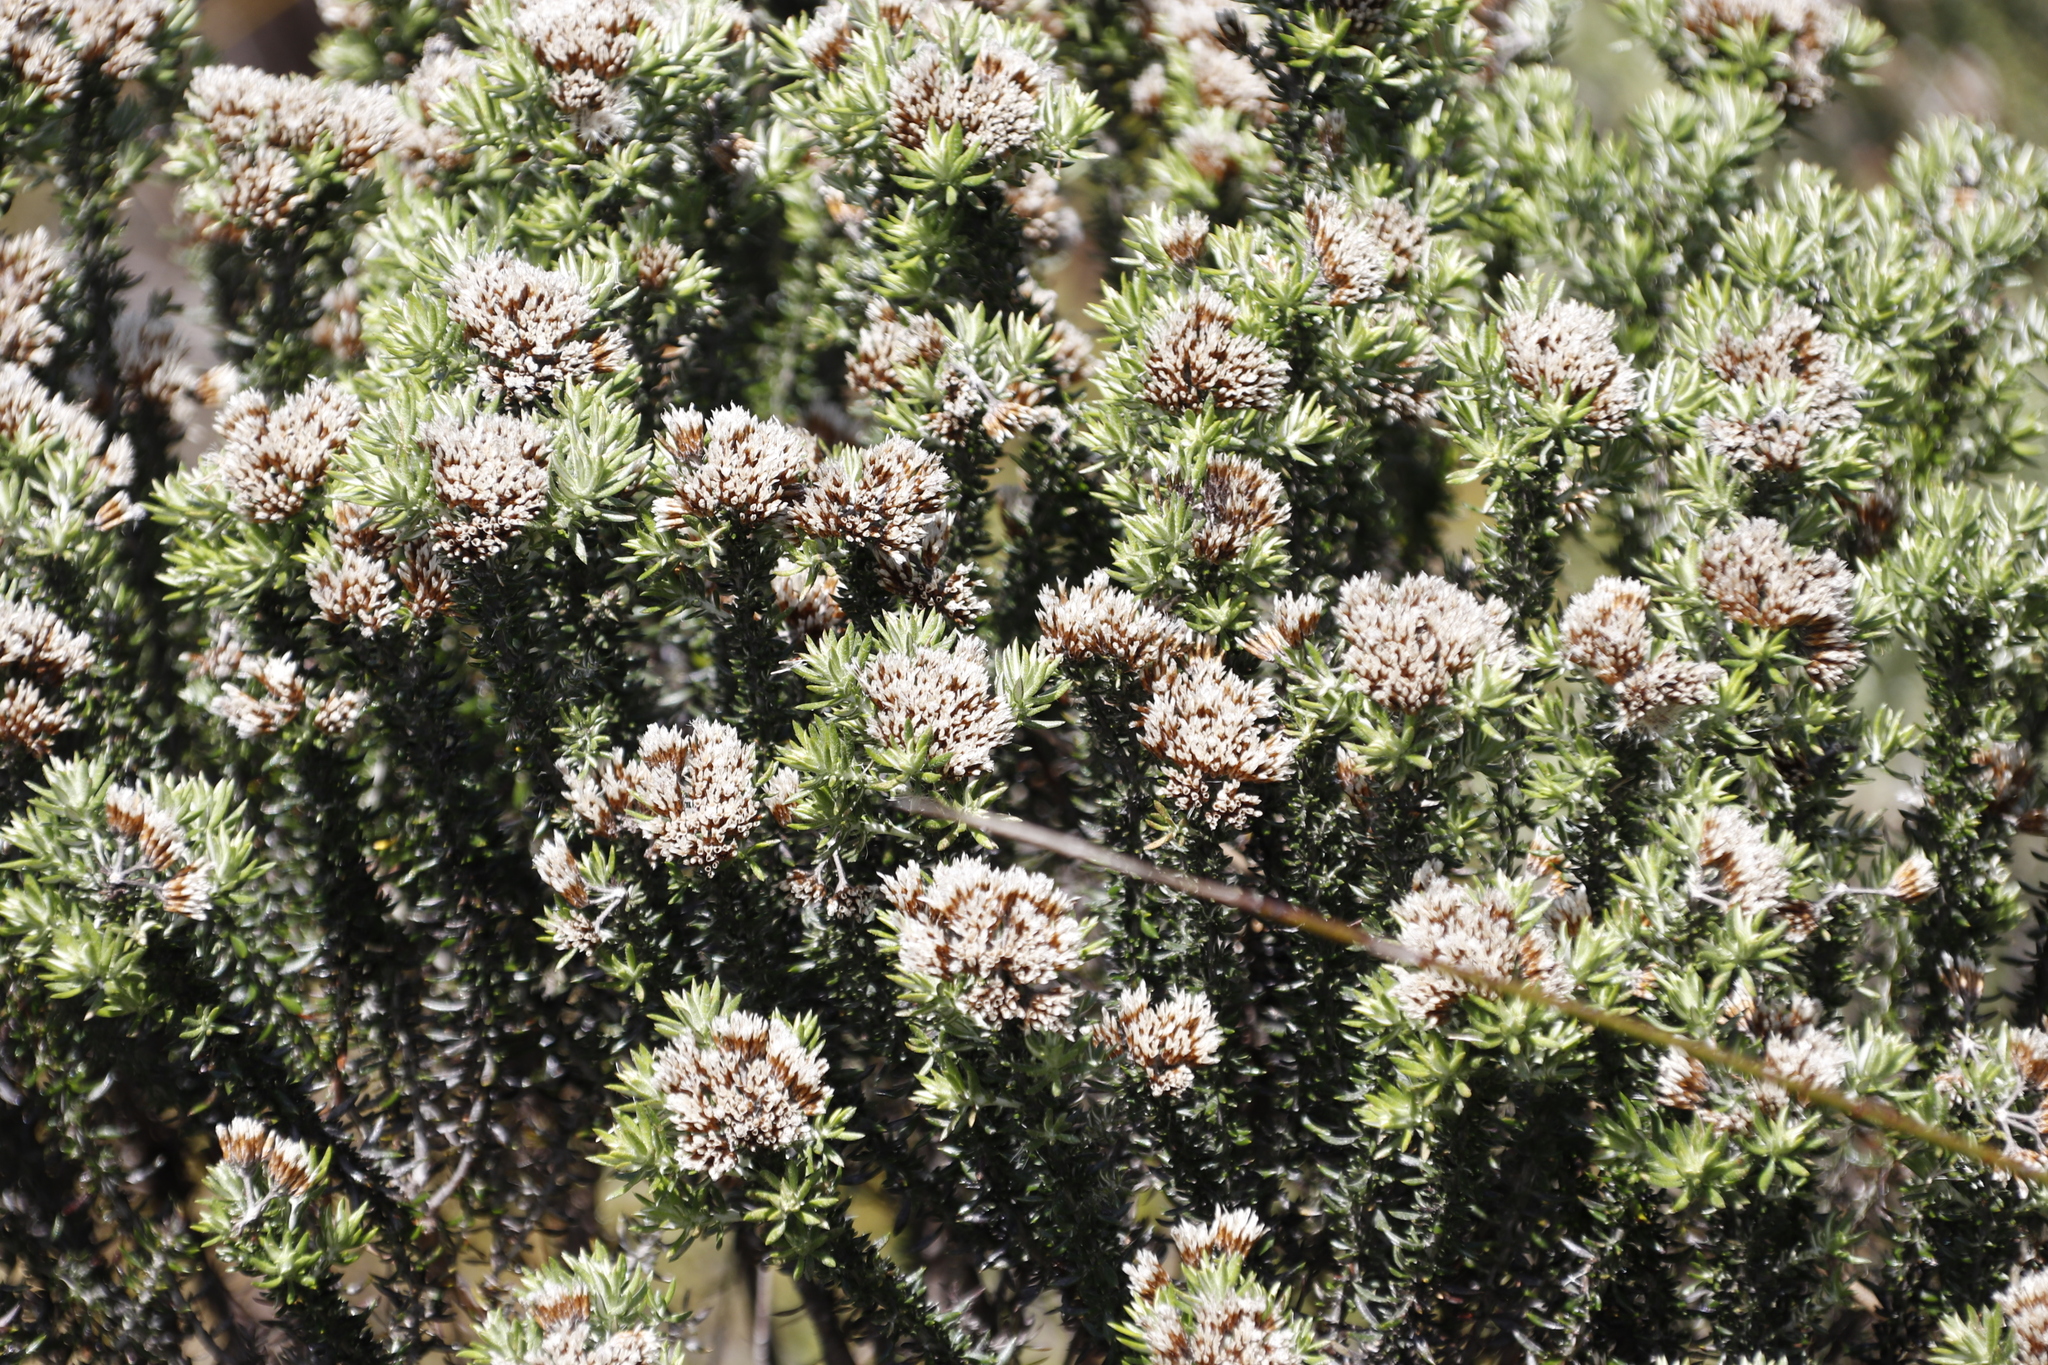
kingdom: Plantae
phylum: Tracheophyta
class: Magnoliopsida
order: Asterales
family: Asteraceae
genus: Metalasia
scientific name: Metalasia densa
